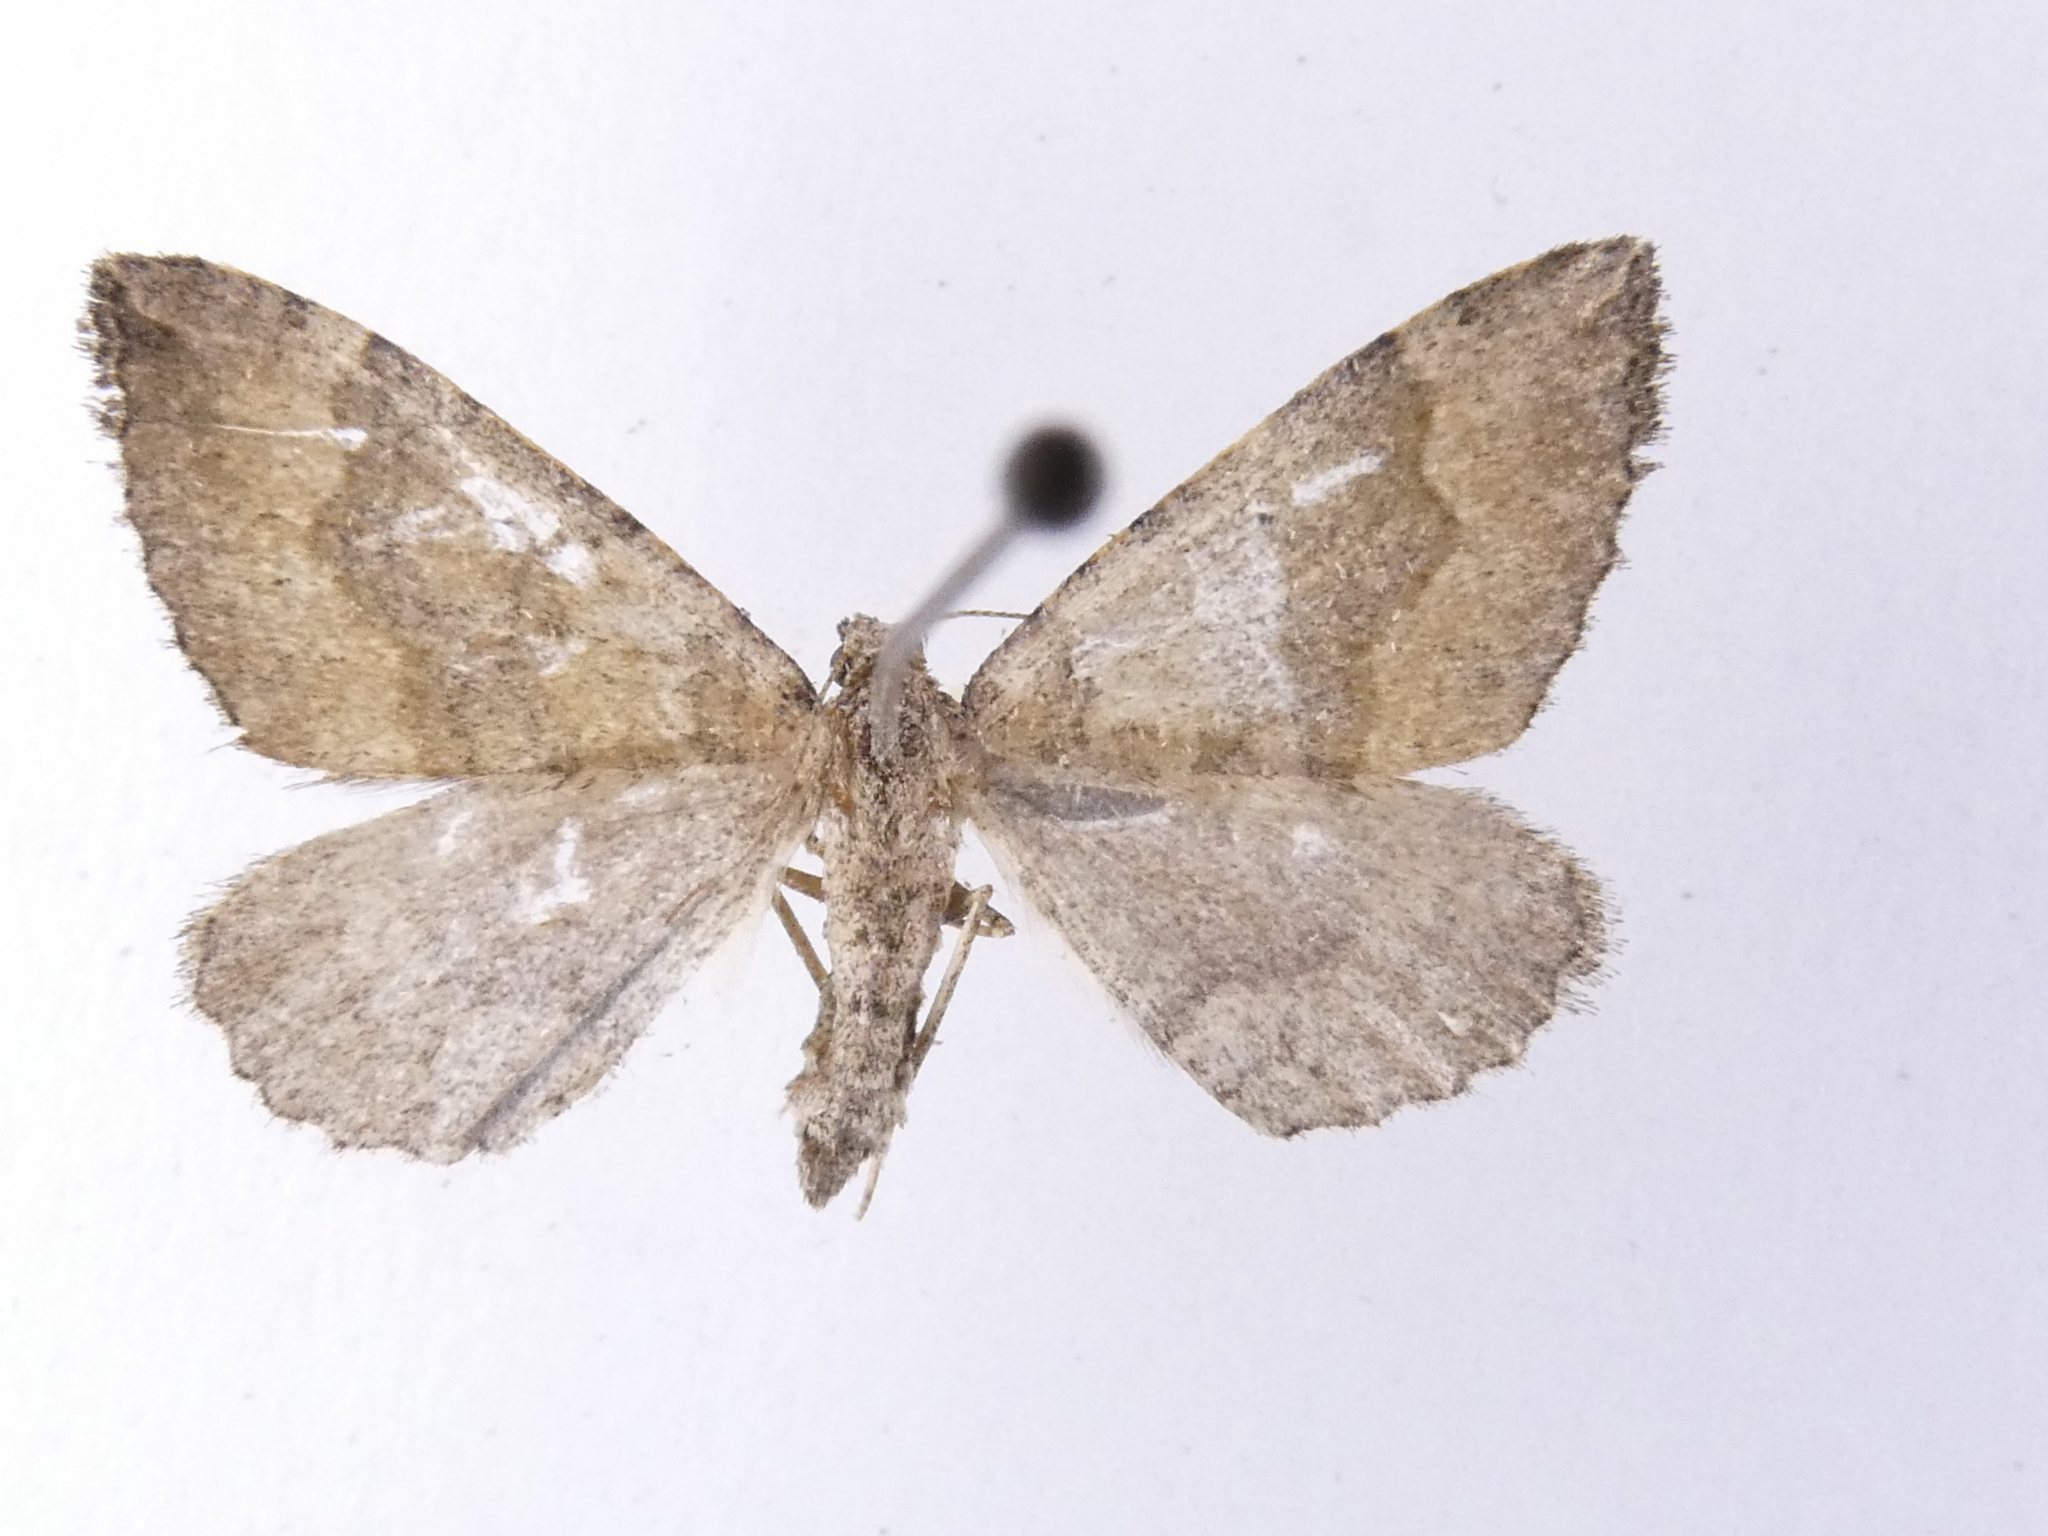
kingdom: Animalia
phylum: Arthropoda
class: Insecta
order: Lepidoptera
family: Geometridae
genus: Epyaxa
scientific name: Epyaxa rosearia
